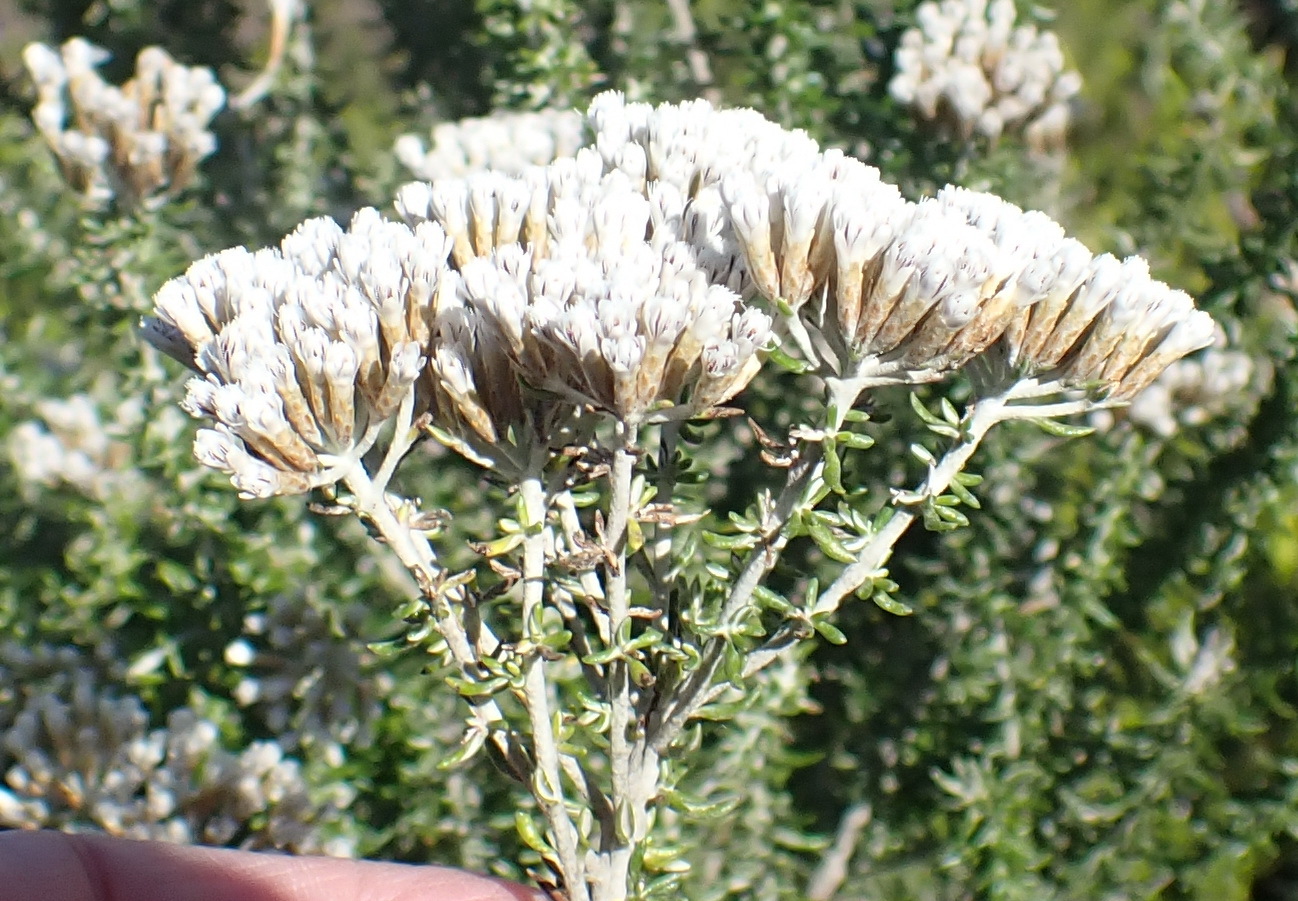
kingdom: Plantae
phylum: Tracheophyta
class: Magnoliopsida
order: Asterales
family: Asteraceae
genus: Metalasia
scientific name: Metalasia muricata
